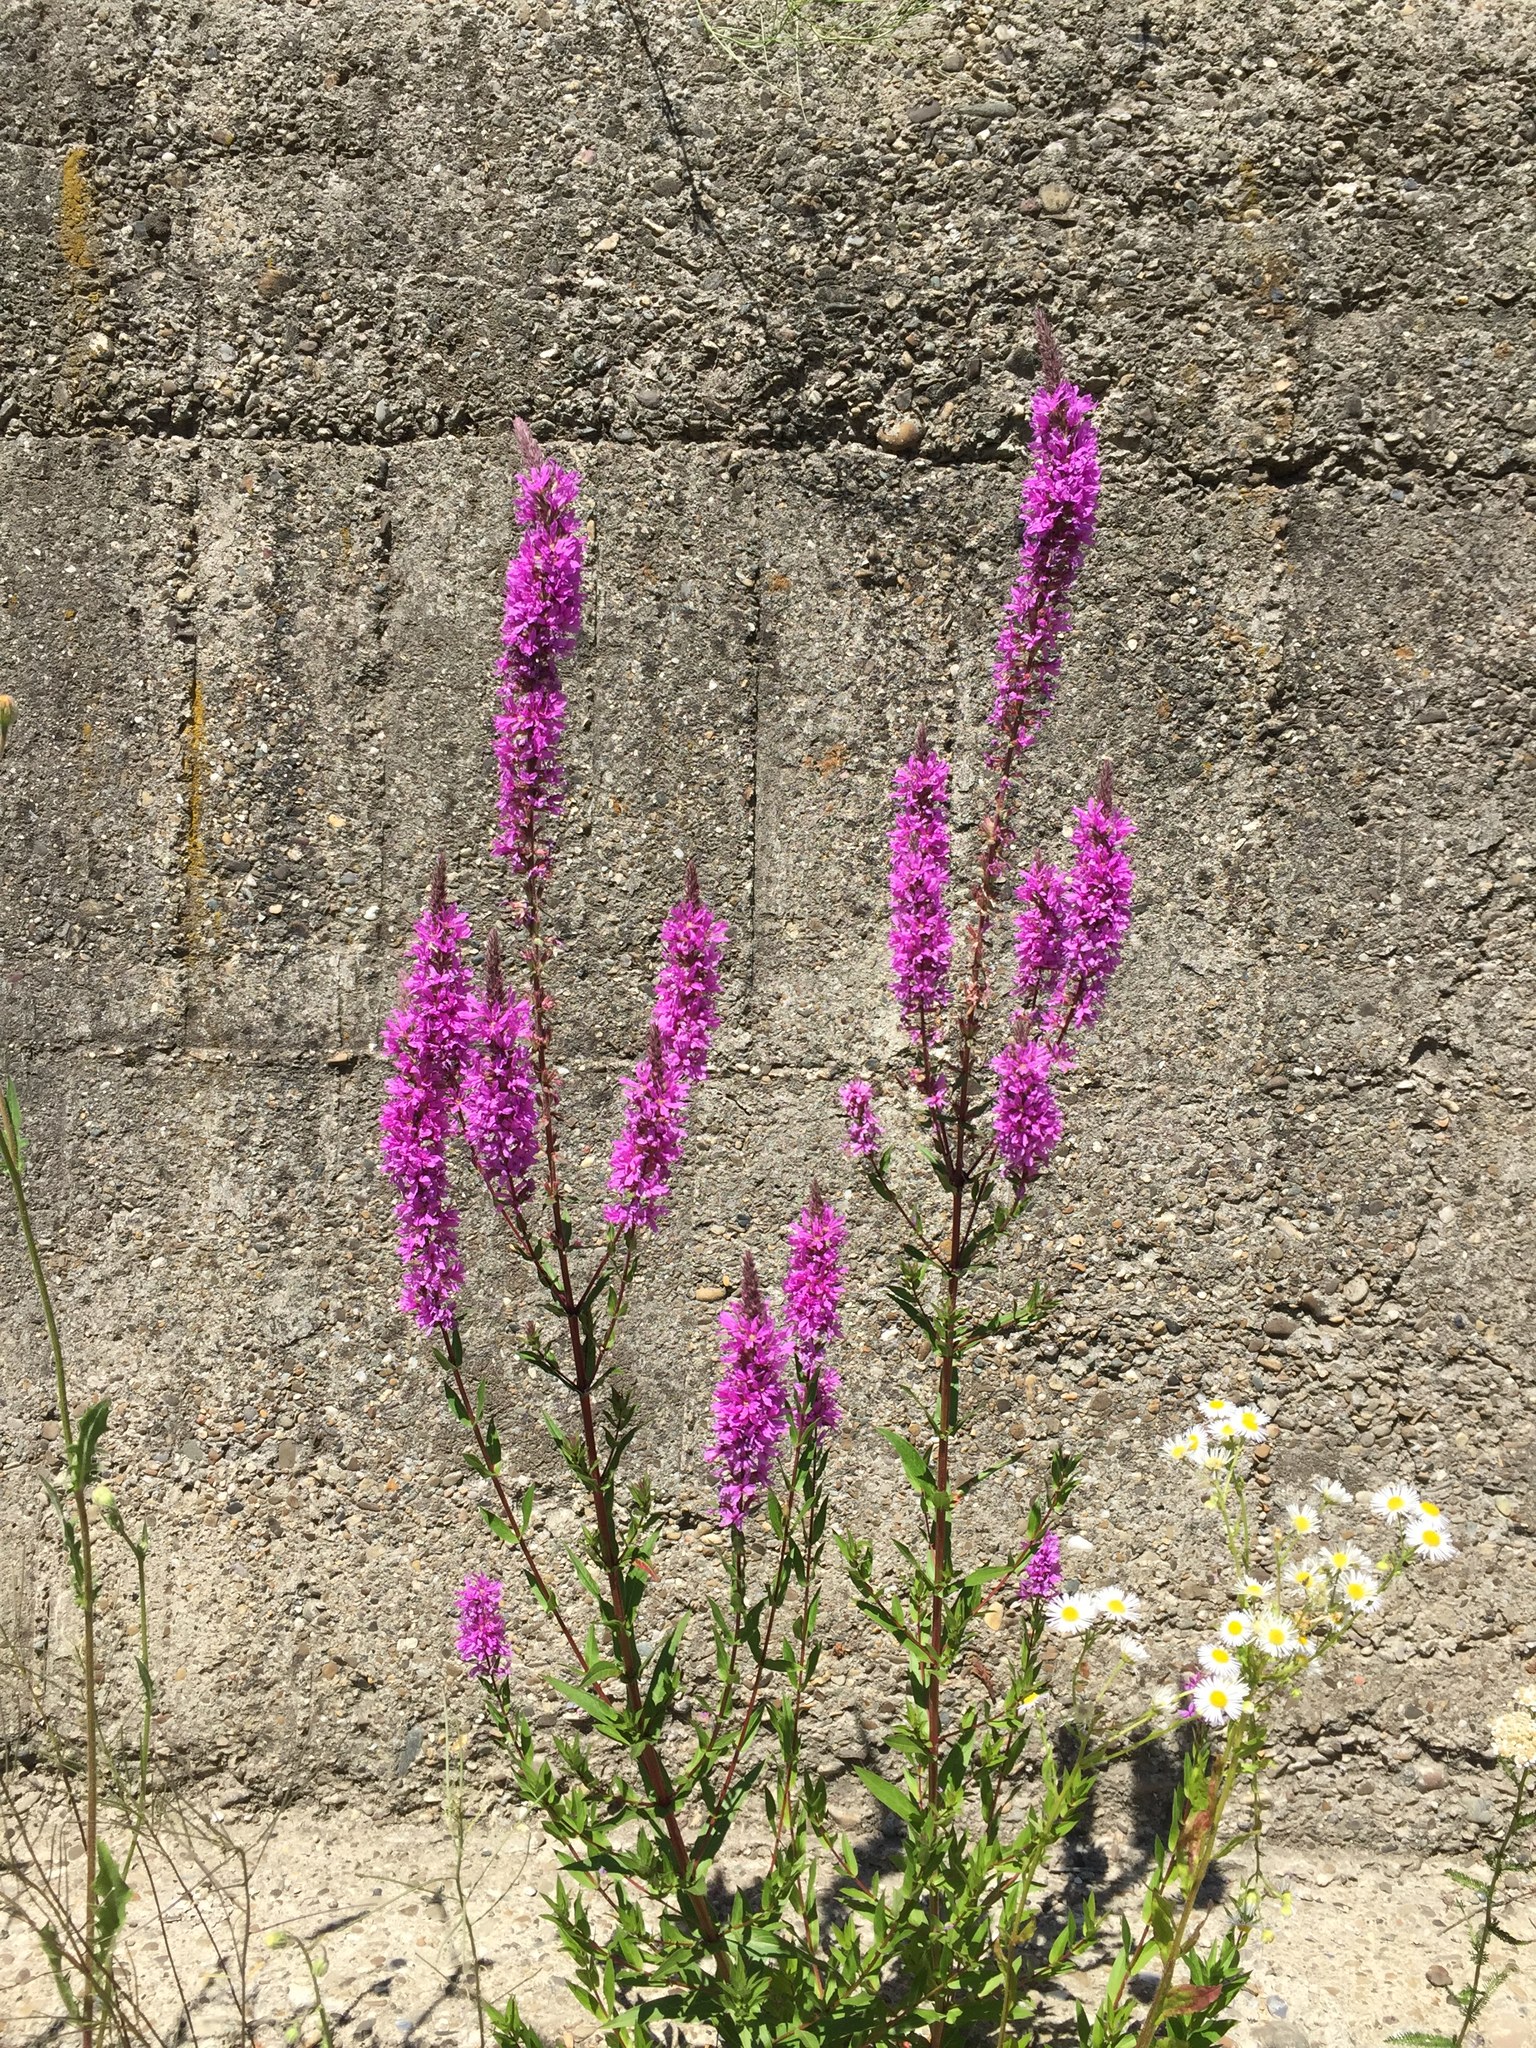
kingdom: Plantae
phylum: Tracheophyta
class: Magnoliopsida
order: Myrtales
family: Lythraceae
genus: Lythrum
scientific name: Lythrum salicaria
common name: Purple loosestrife
